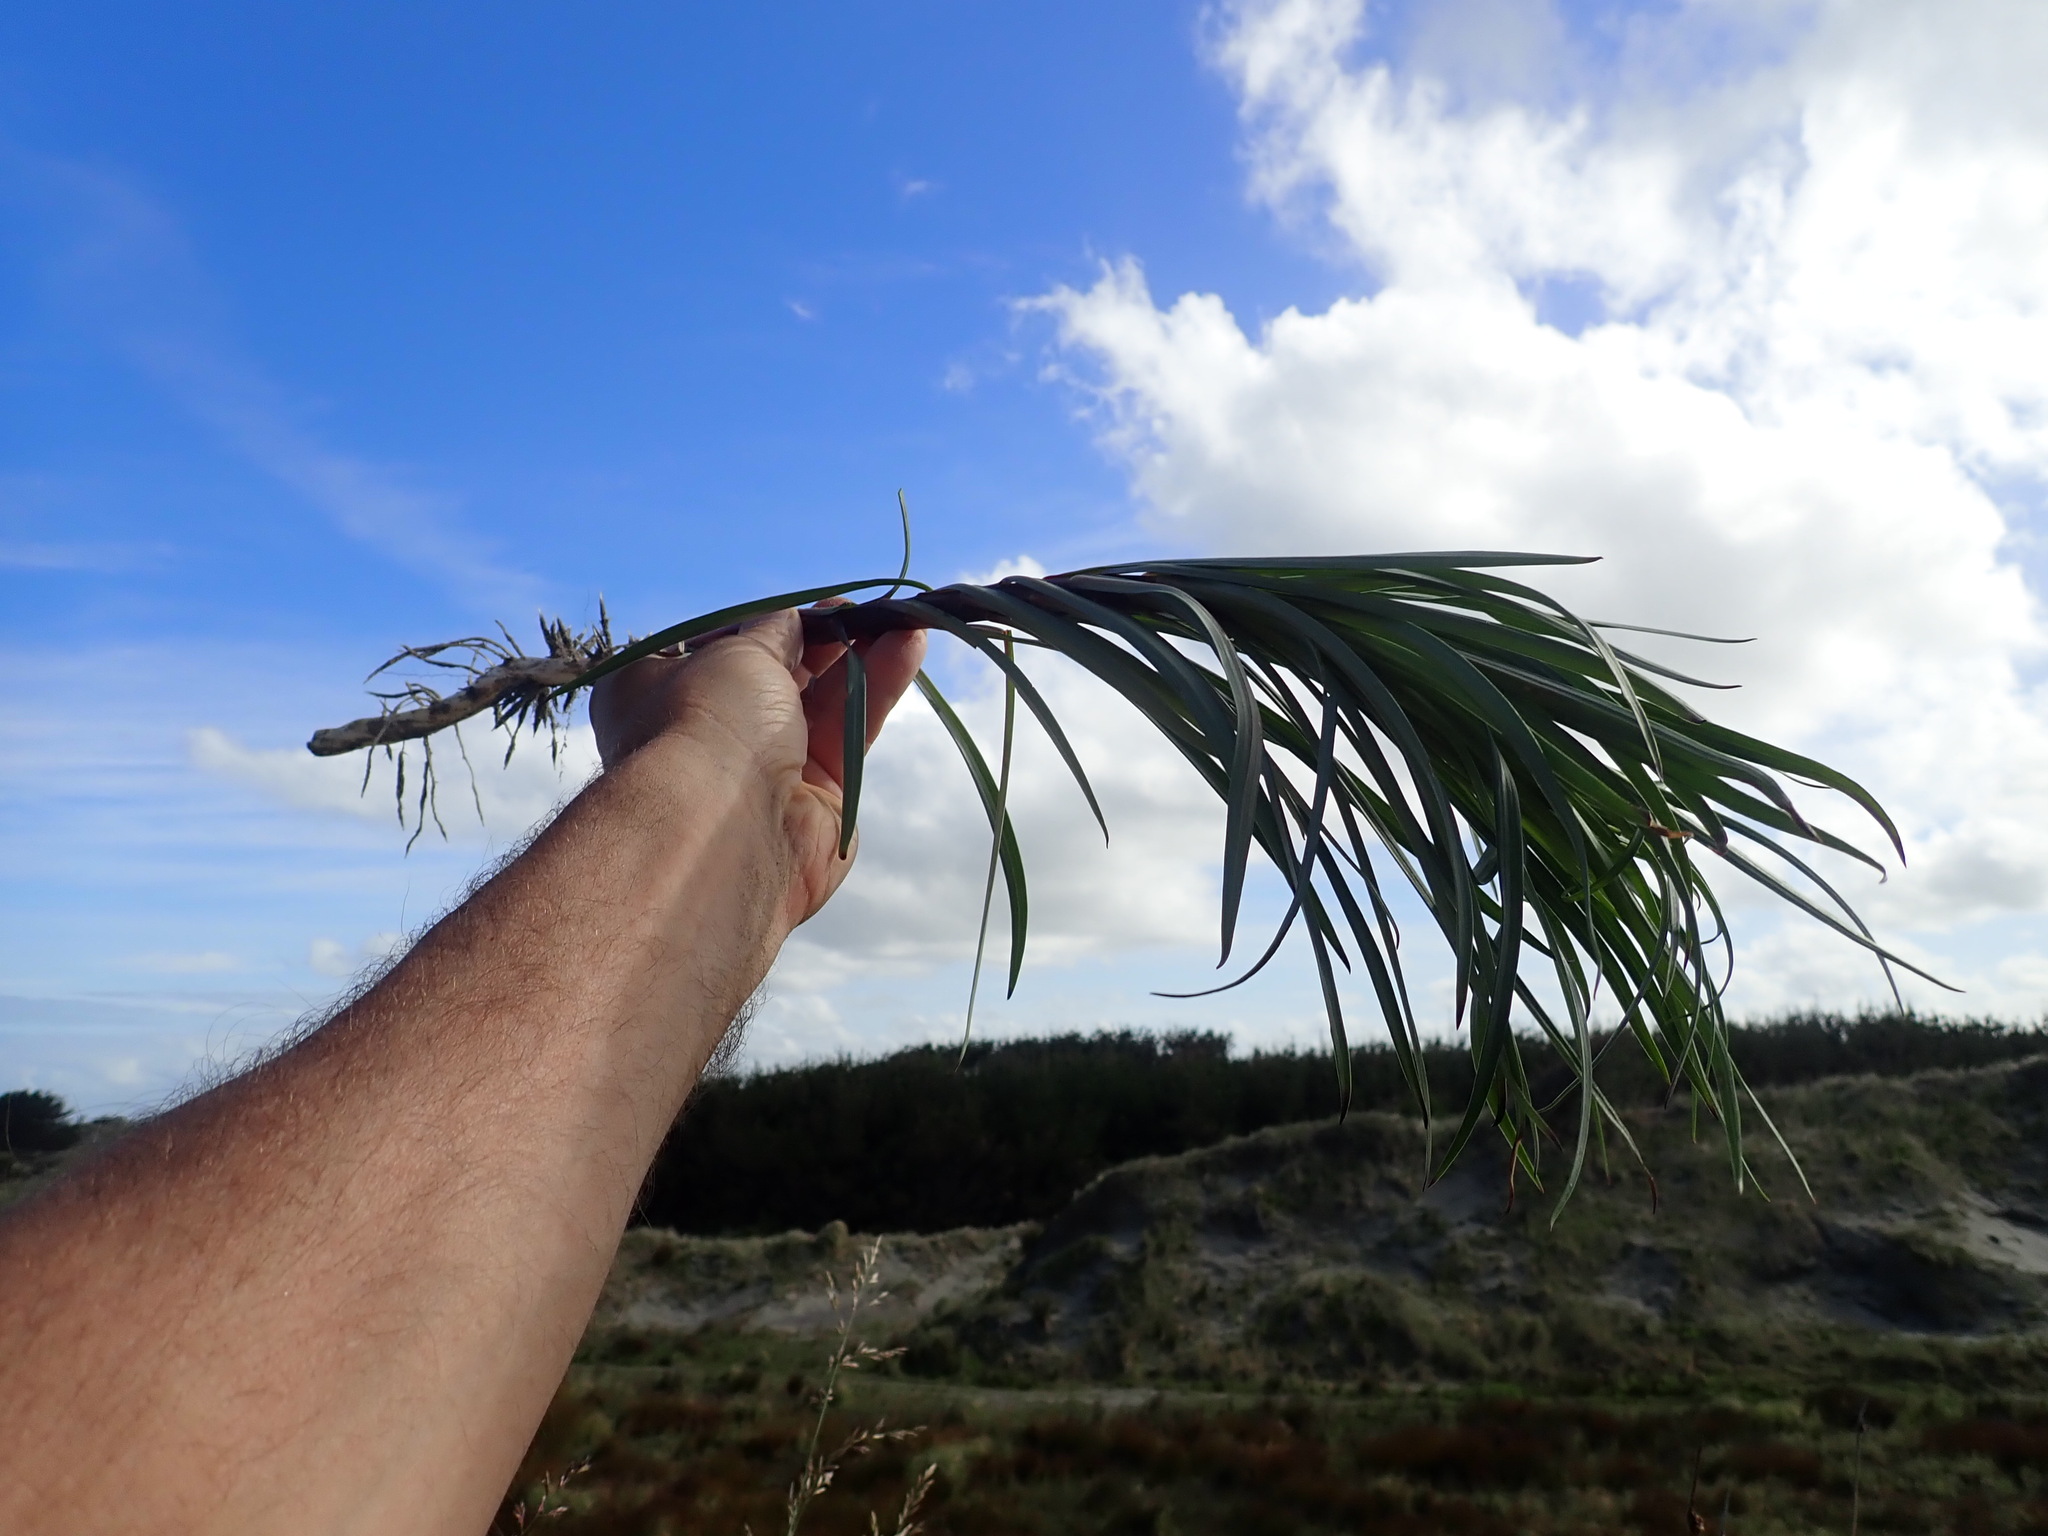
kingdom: Plantae
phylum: Tracheophyta
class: Liliopsida
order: Liliales
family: Liliaceae
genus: Lilium
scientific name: Lilium formosanum
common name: Formosa lily
